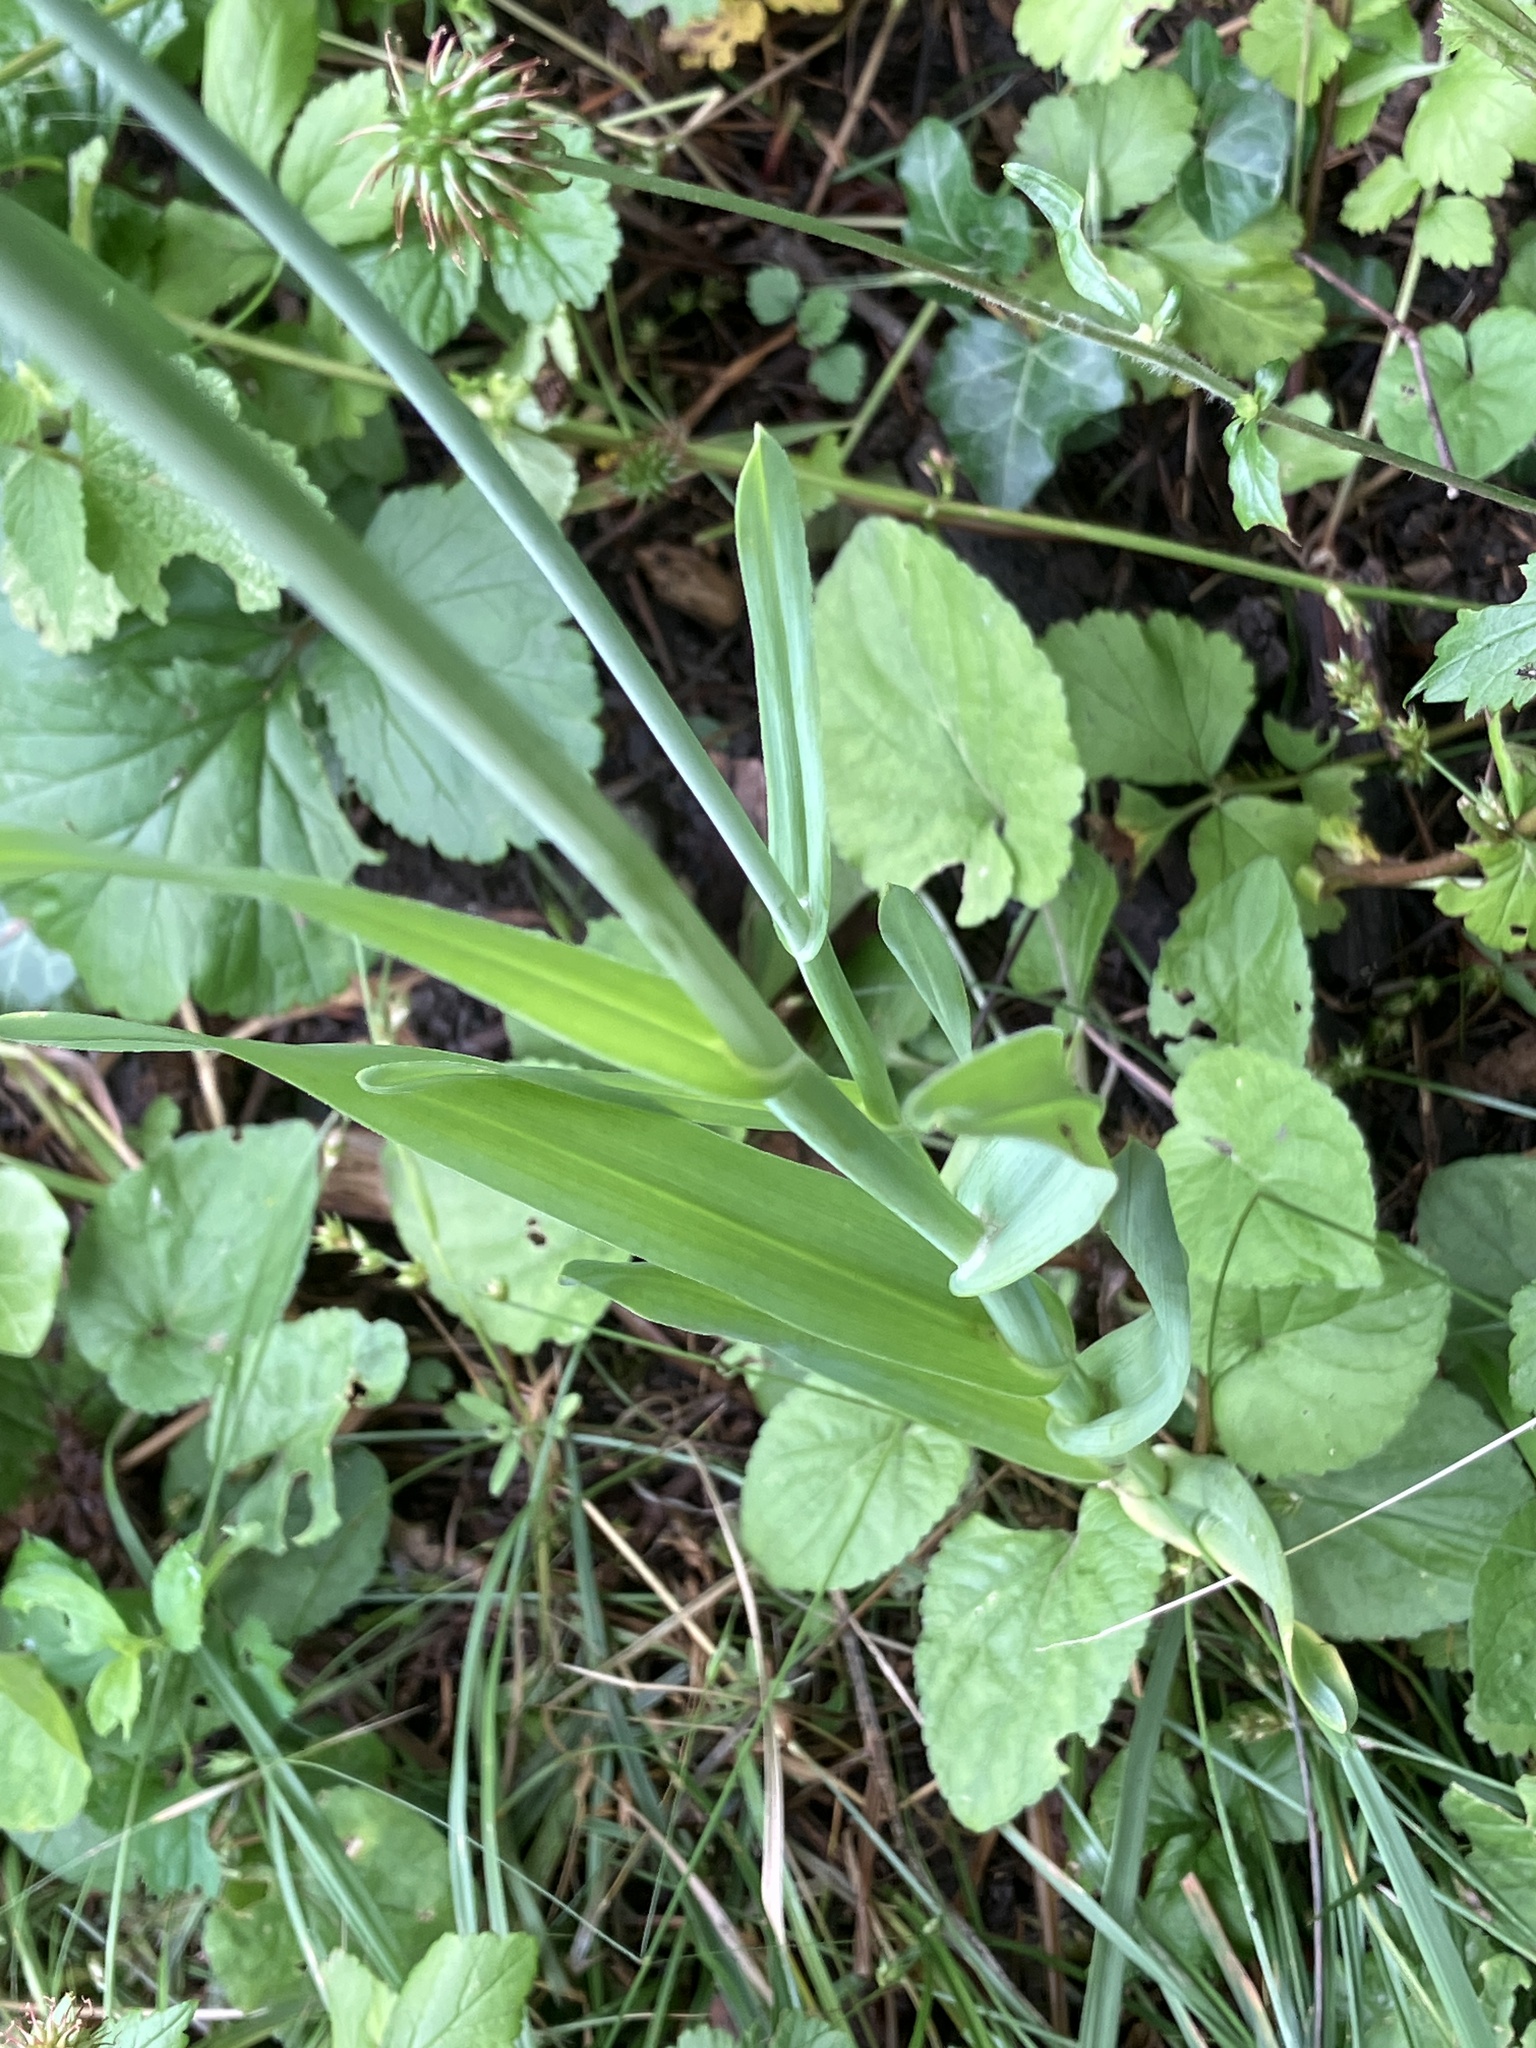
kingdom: Plantae
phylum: Tracheophyta
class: Liliopsida
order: Asparagales
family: Amaryllidaceae
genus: Allium
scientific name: Allium scorodoprasum
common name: Sand leek
